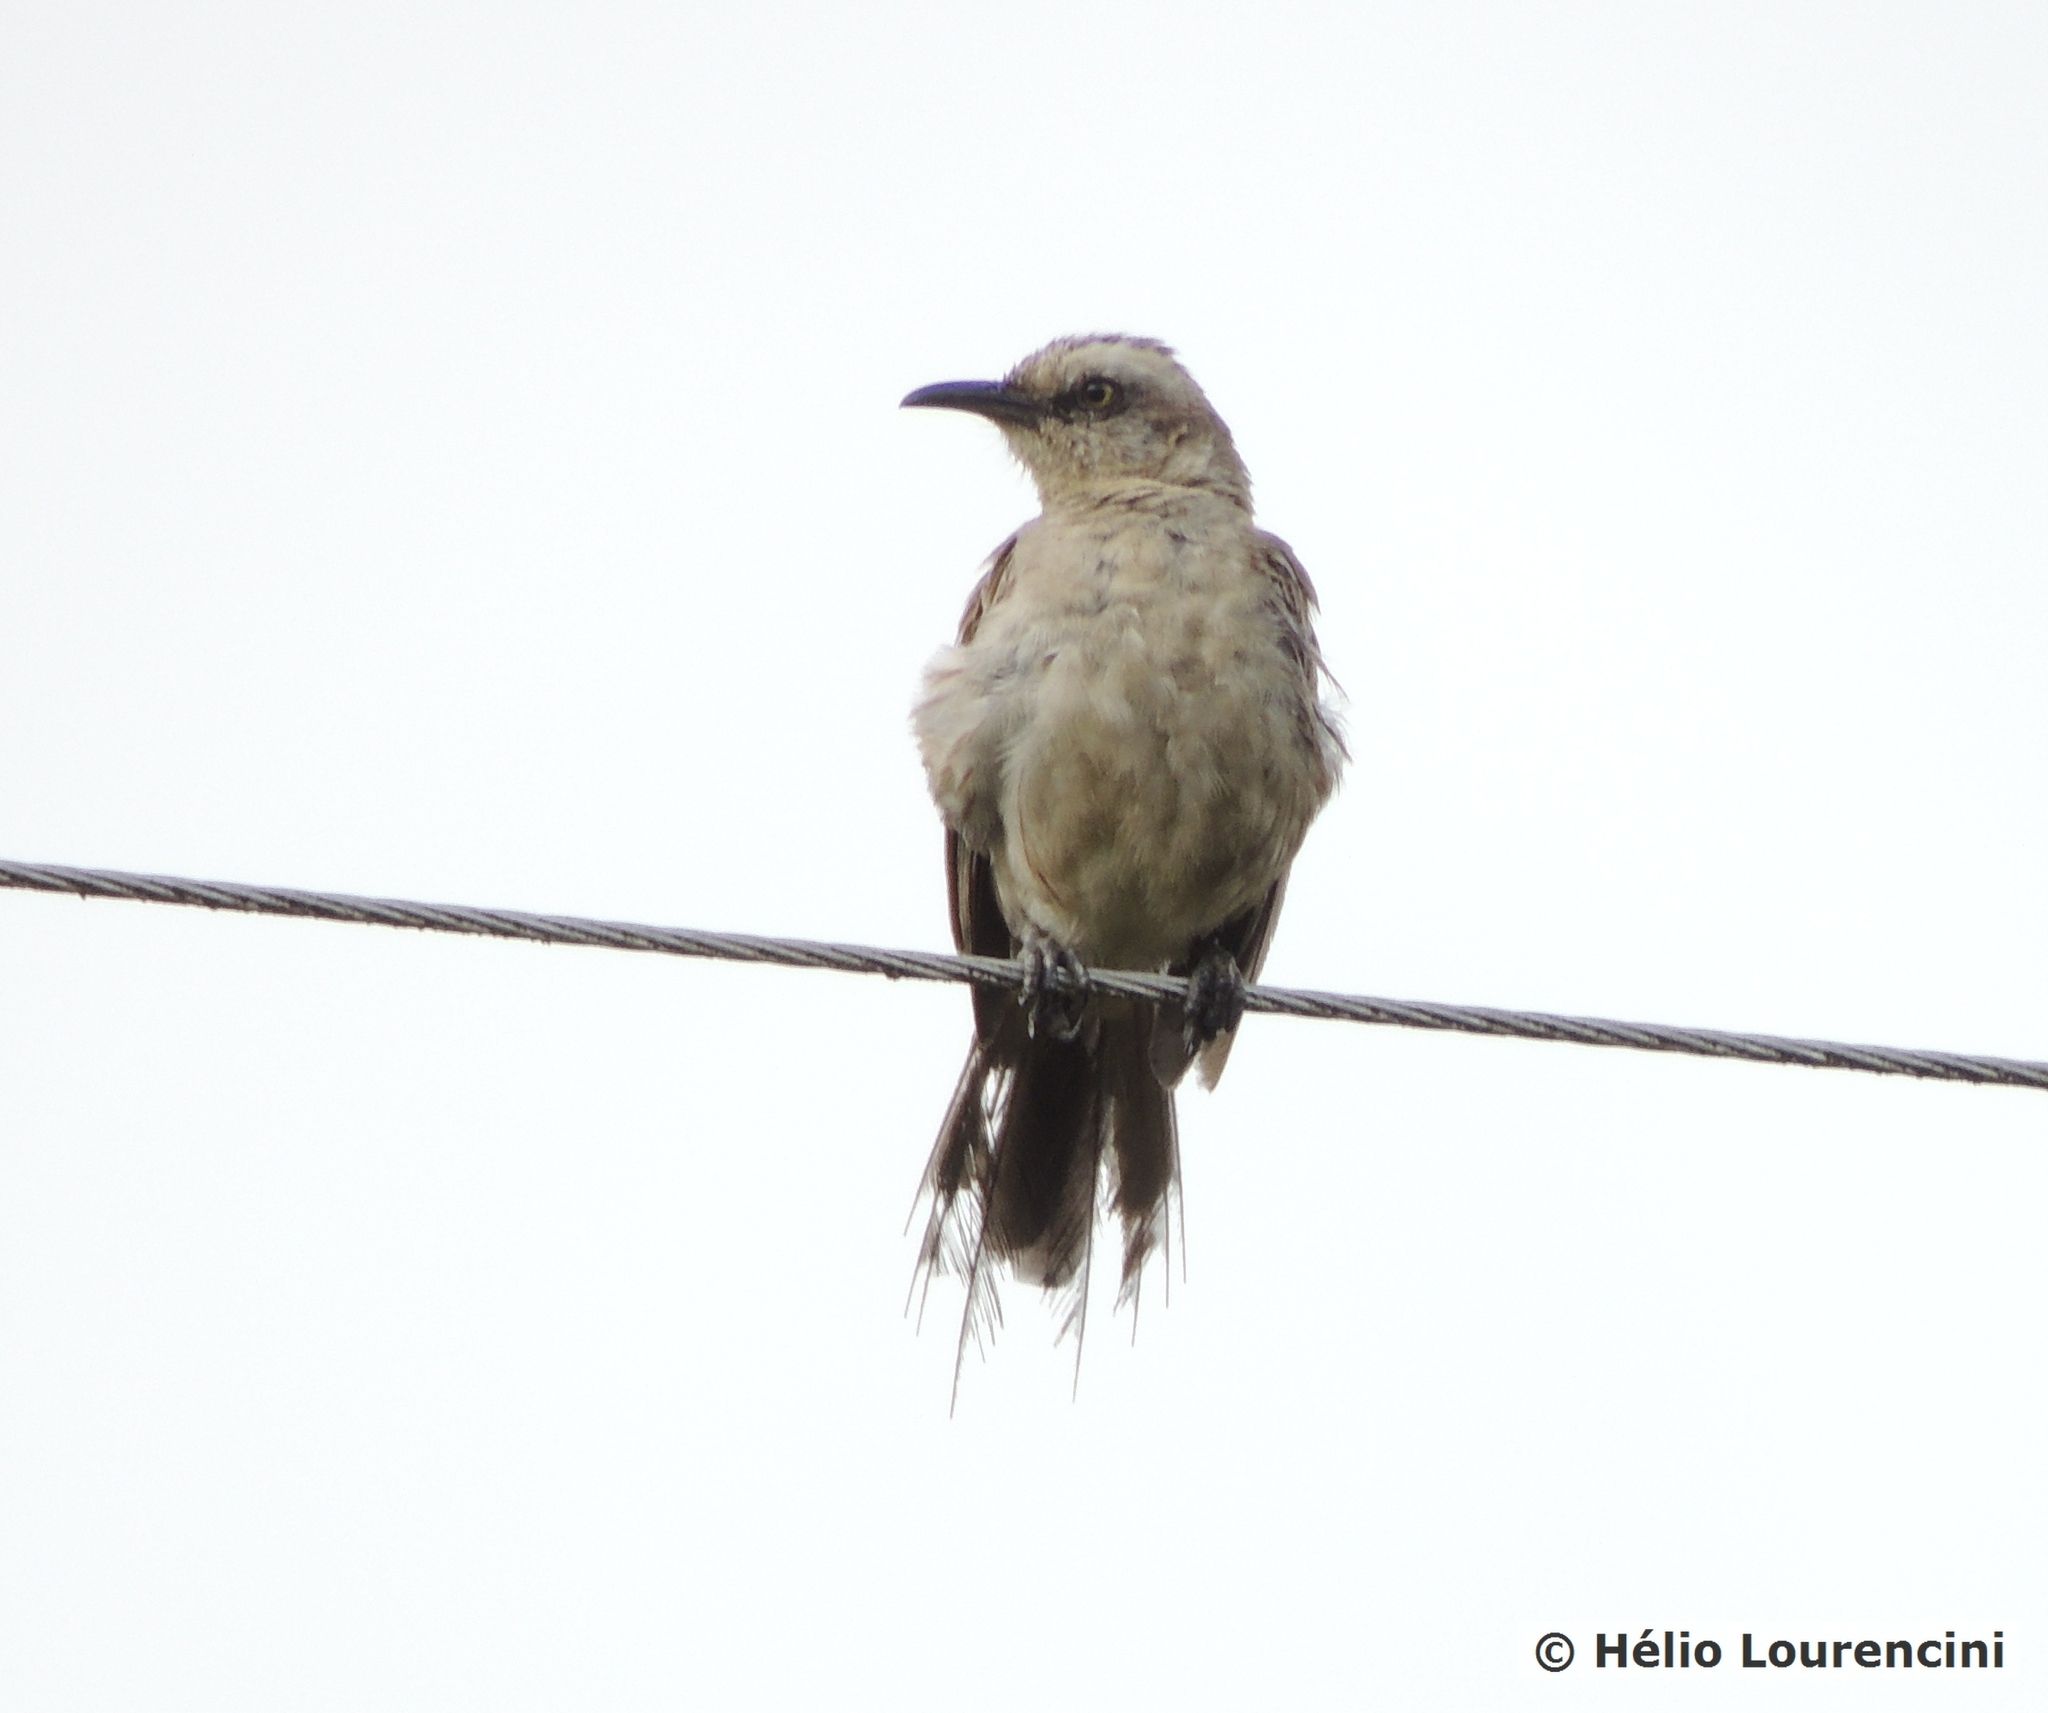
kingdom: Animalia
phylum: Chordata
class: Aves
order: Passeriformes
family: Mimidae
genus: Mimus
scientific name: Mimus saturninus
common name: Chalk-browed mockingbird
